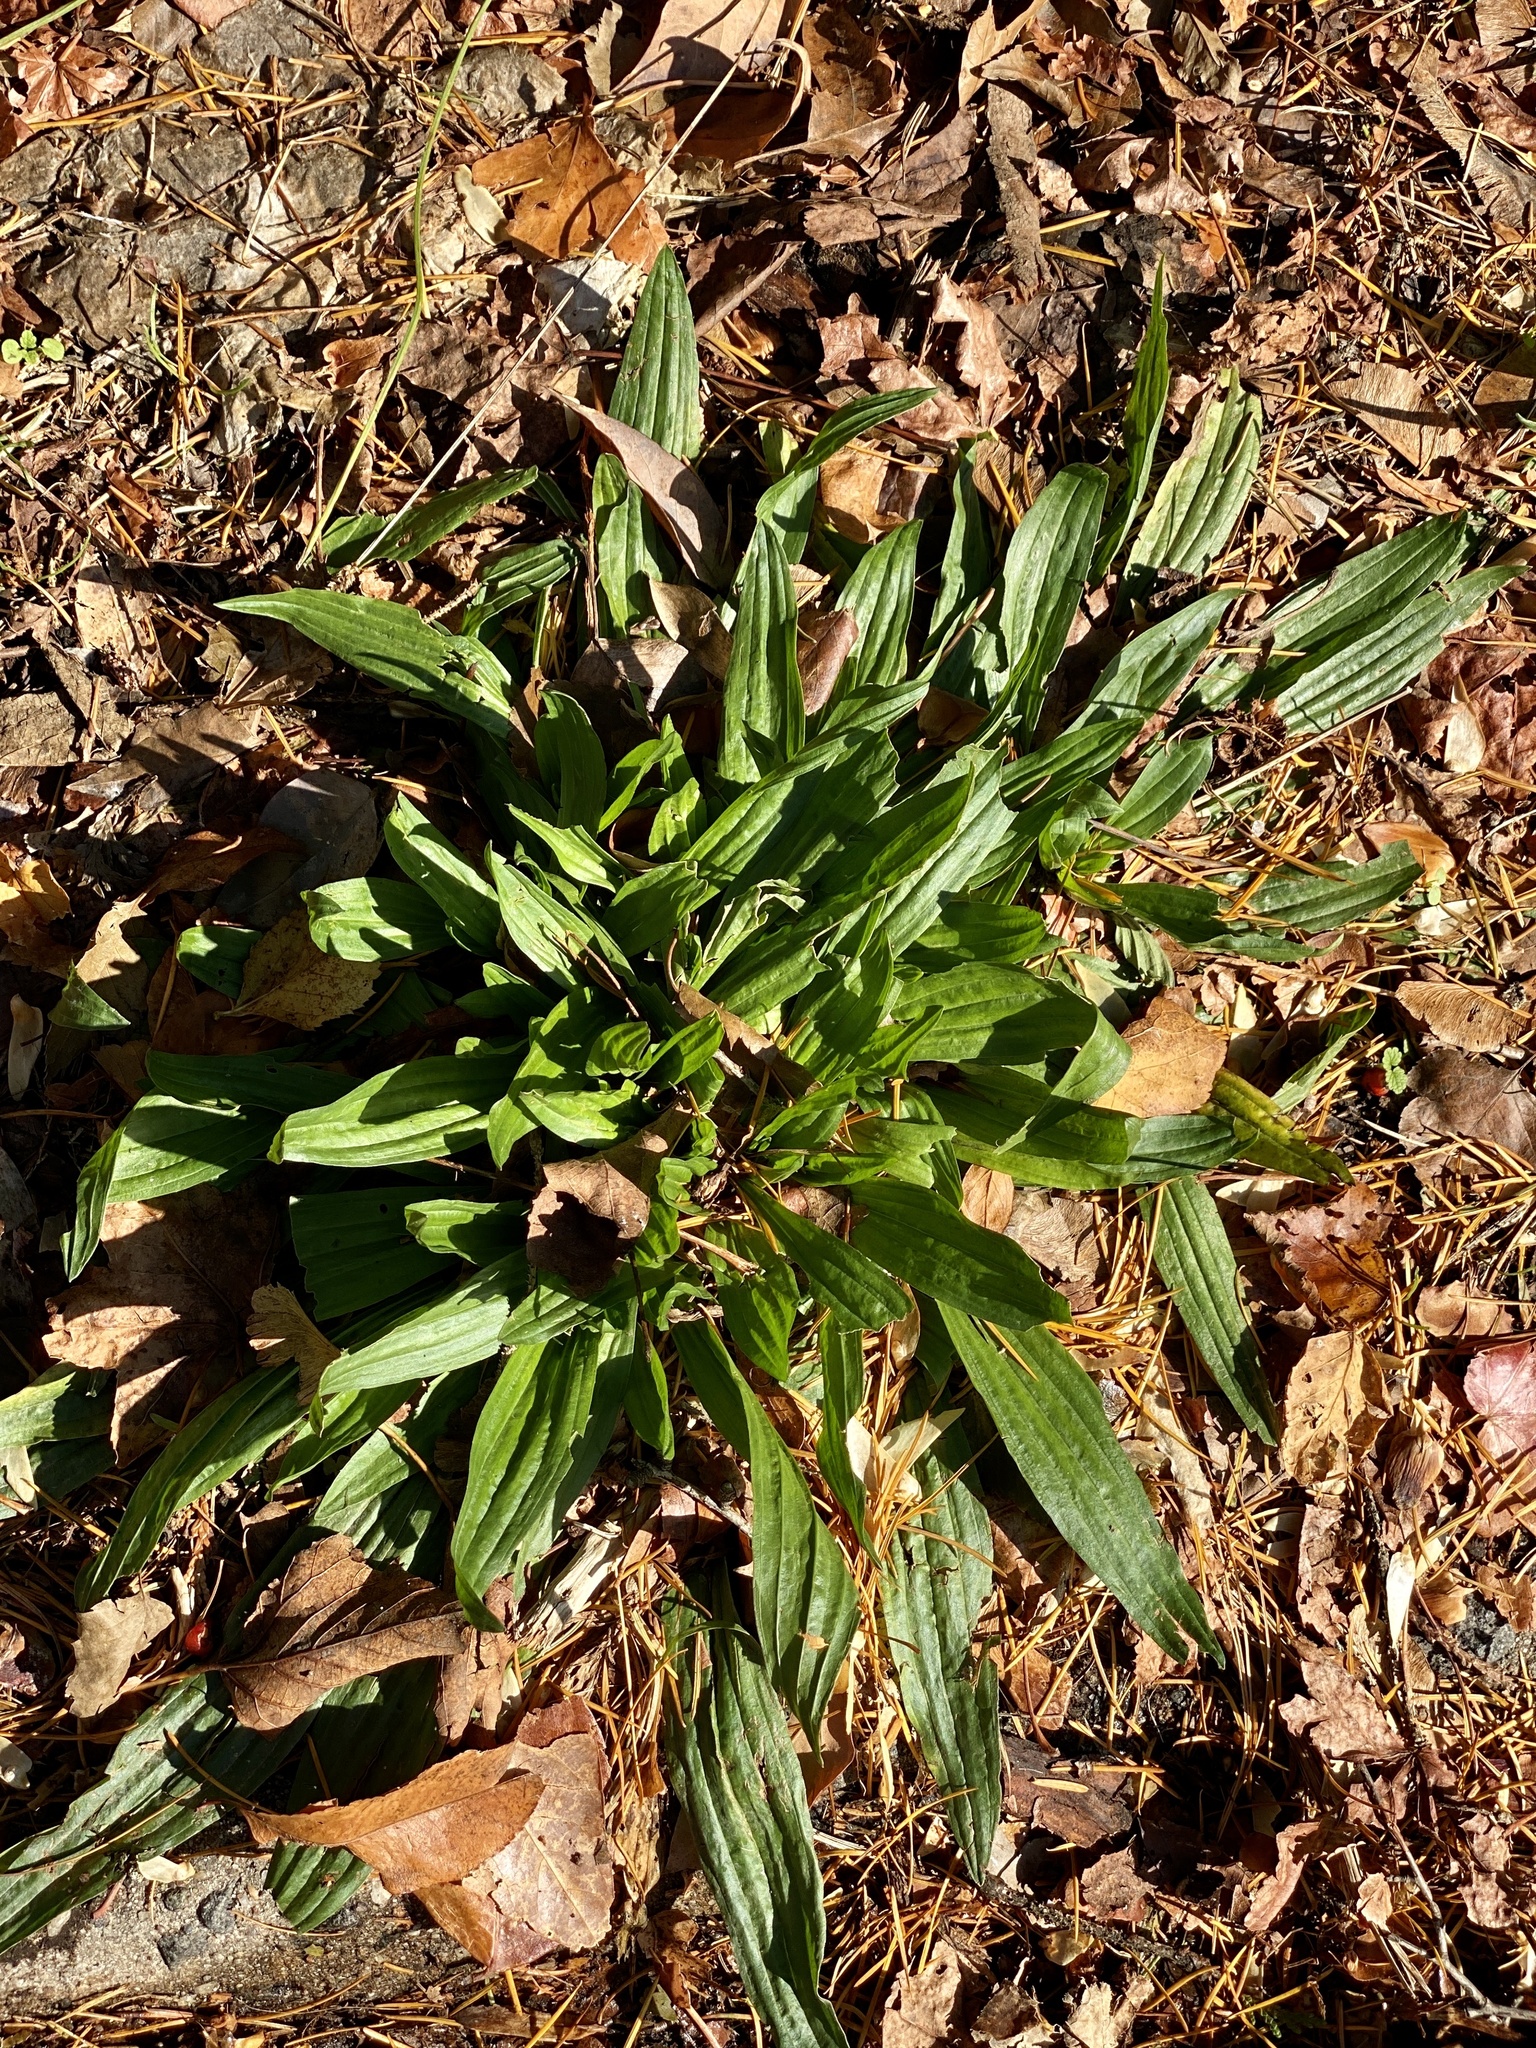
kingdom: Plantae
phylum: Tracheophyta
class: Magnoliopsida
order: Lamiales
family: Plantaginaceae
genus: Plantago
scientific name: Plantago lanceolata
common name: Ribwort plantain
